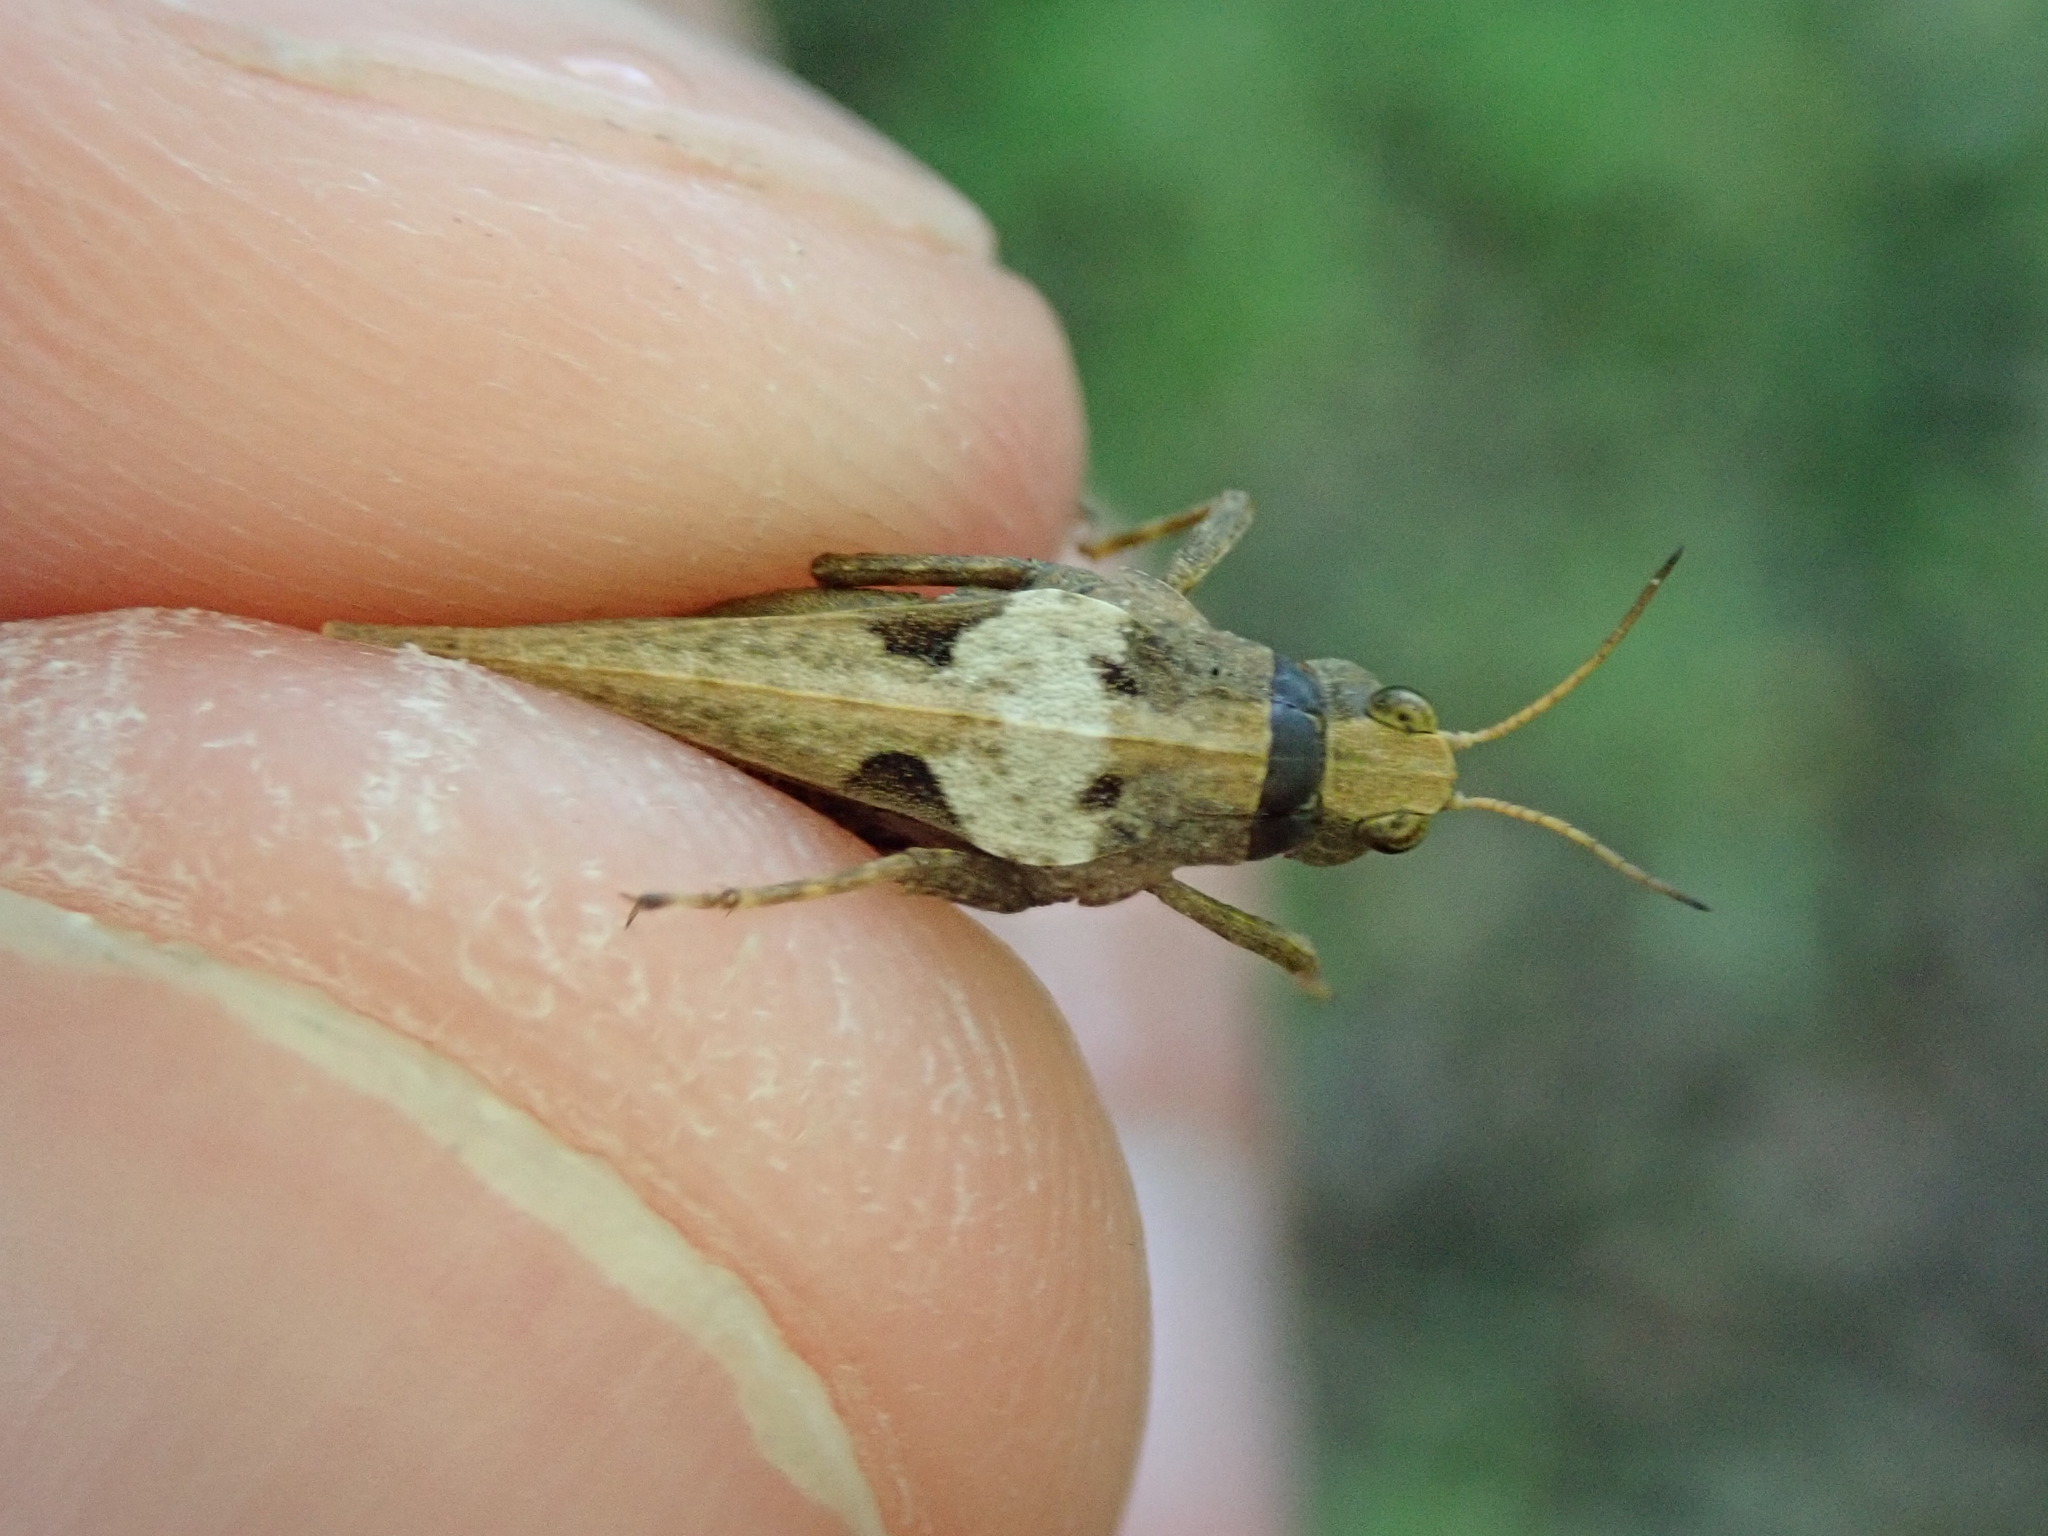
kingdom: Animalia
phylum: Arthropoda
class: Insecta
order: Orthoptera
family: Tetrigidae
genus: Tetrix
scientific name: Tetrix subulata
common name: Slender ground-hopper
